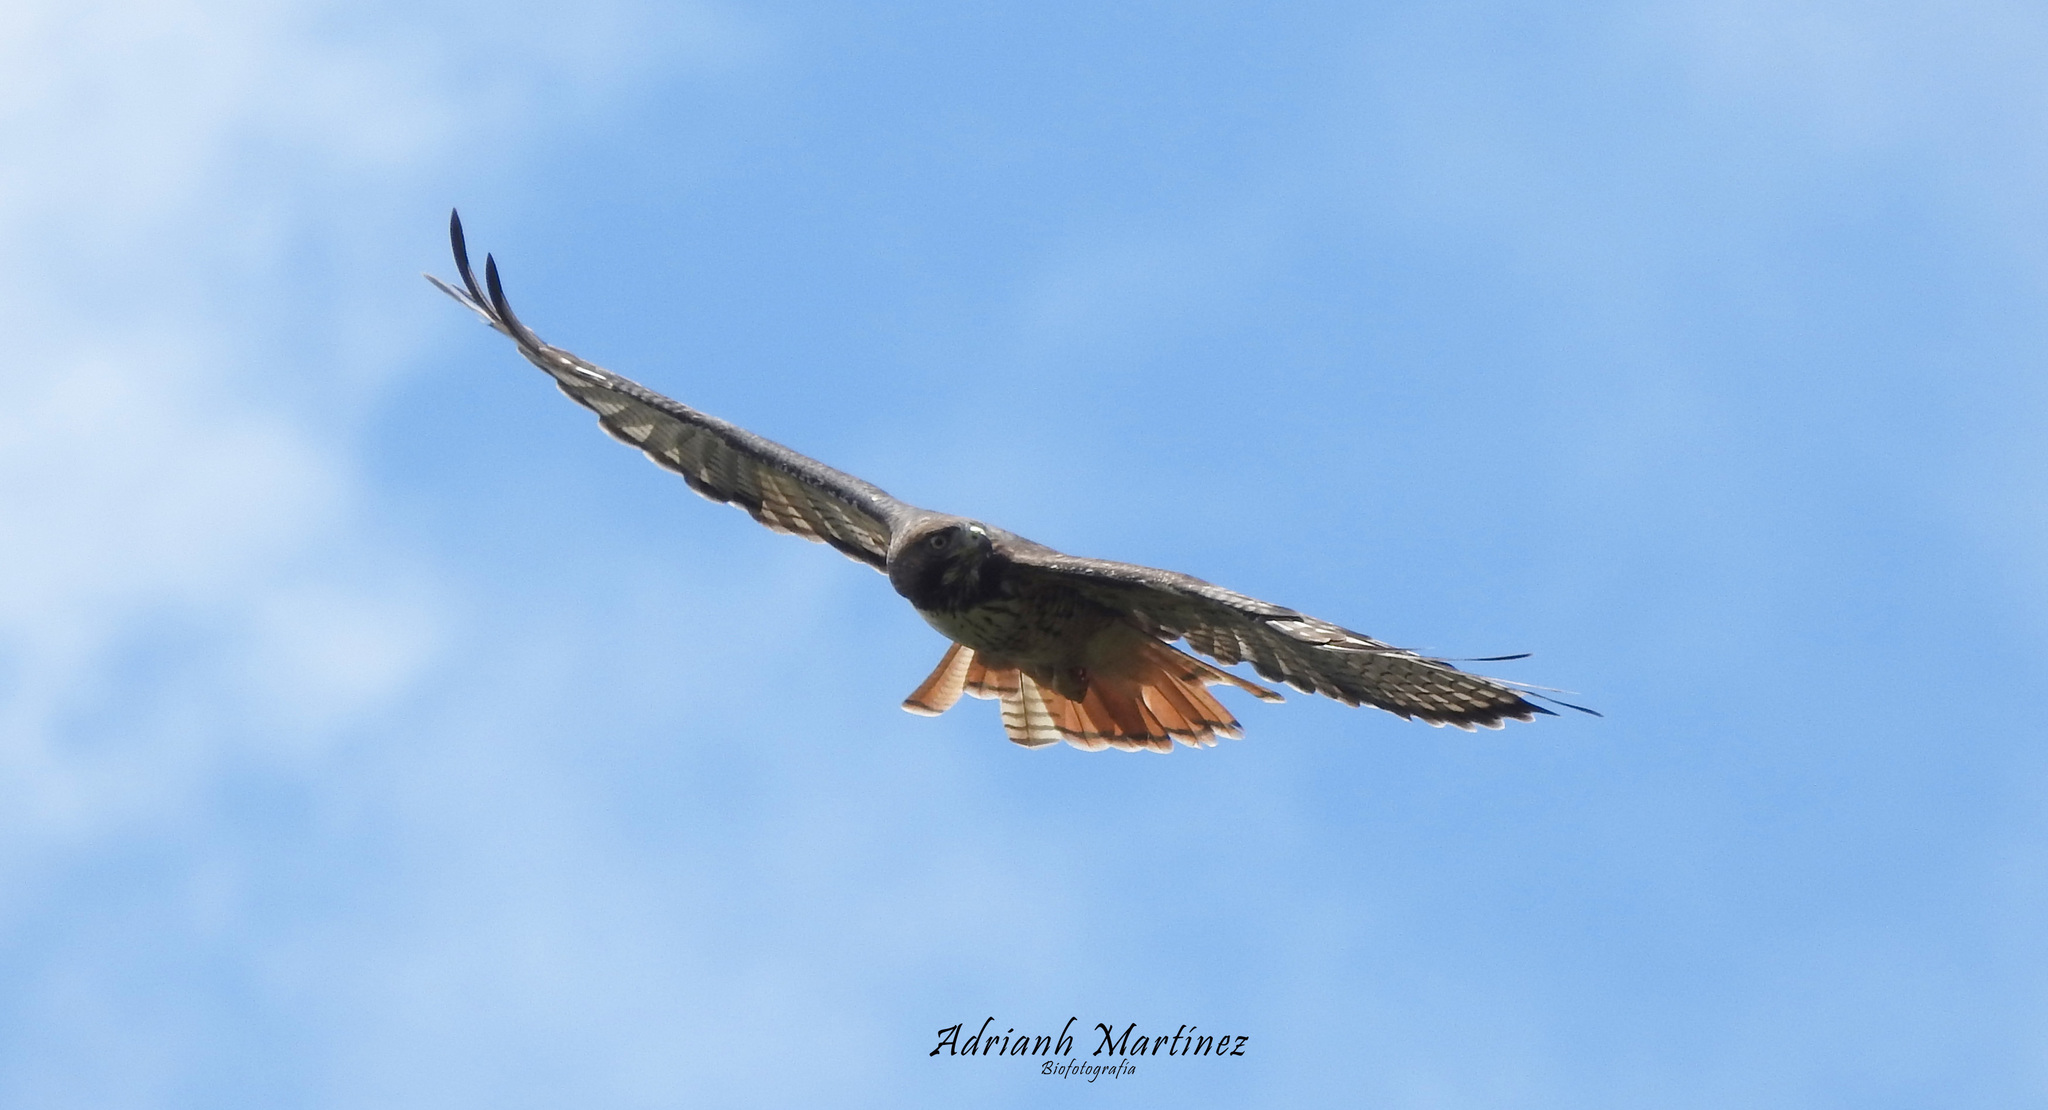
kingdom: Animalia
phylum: Chordata
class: Aves
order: Accipitriformes
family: Accipitridae
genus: Buteo
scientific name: Buteo jamaicensis
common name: Red-tailed hawk
